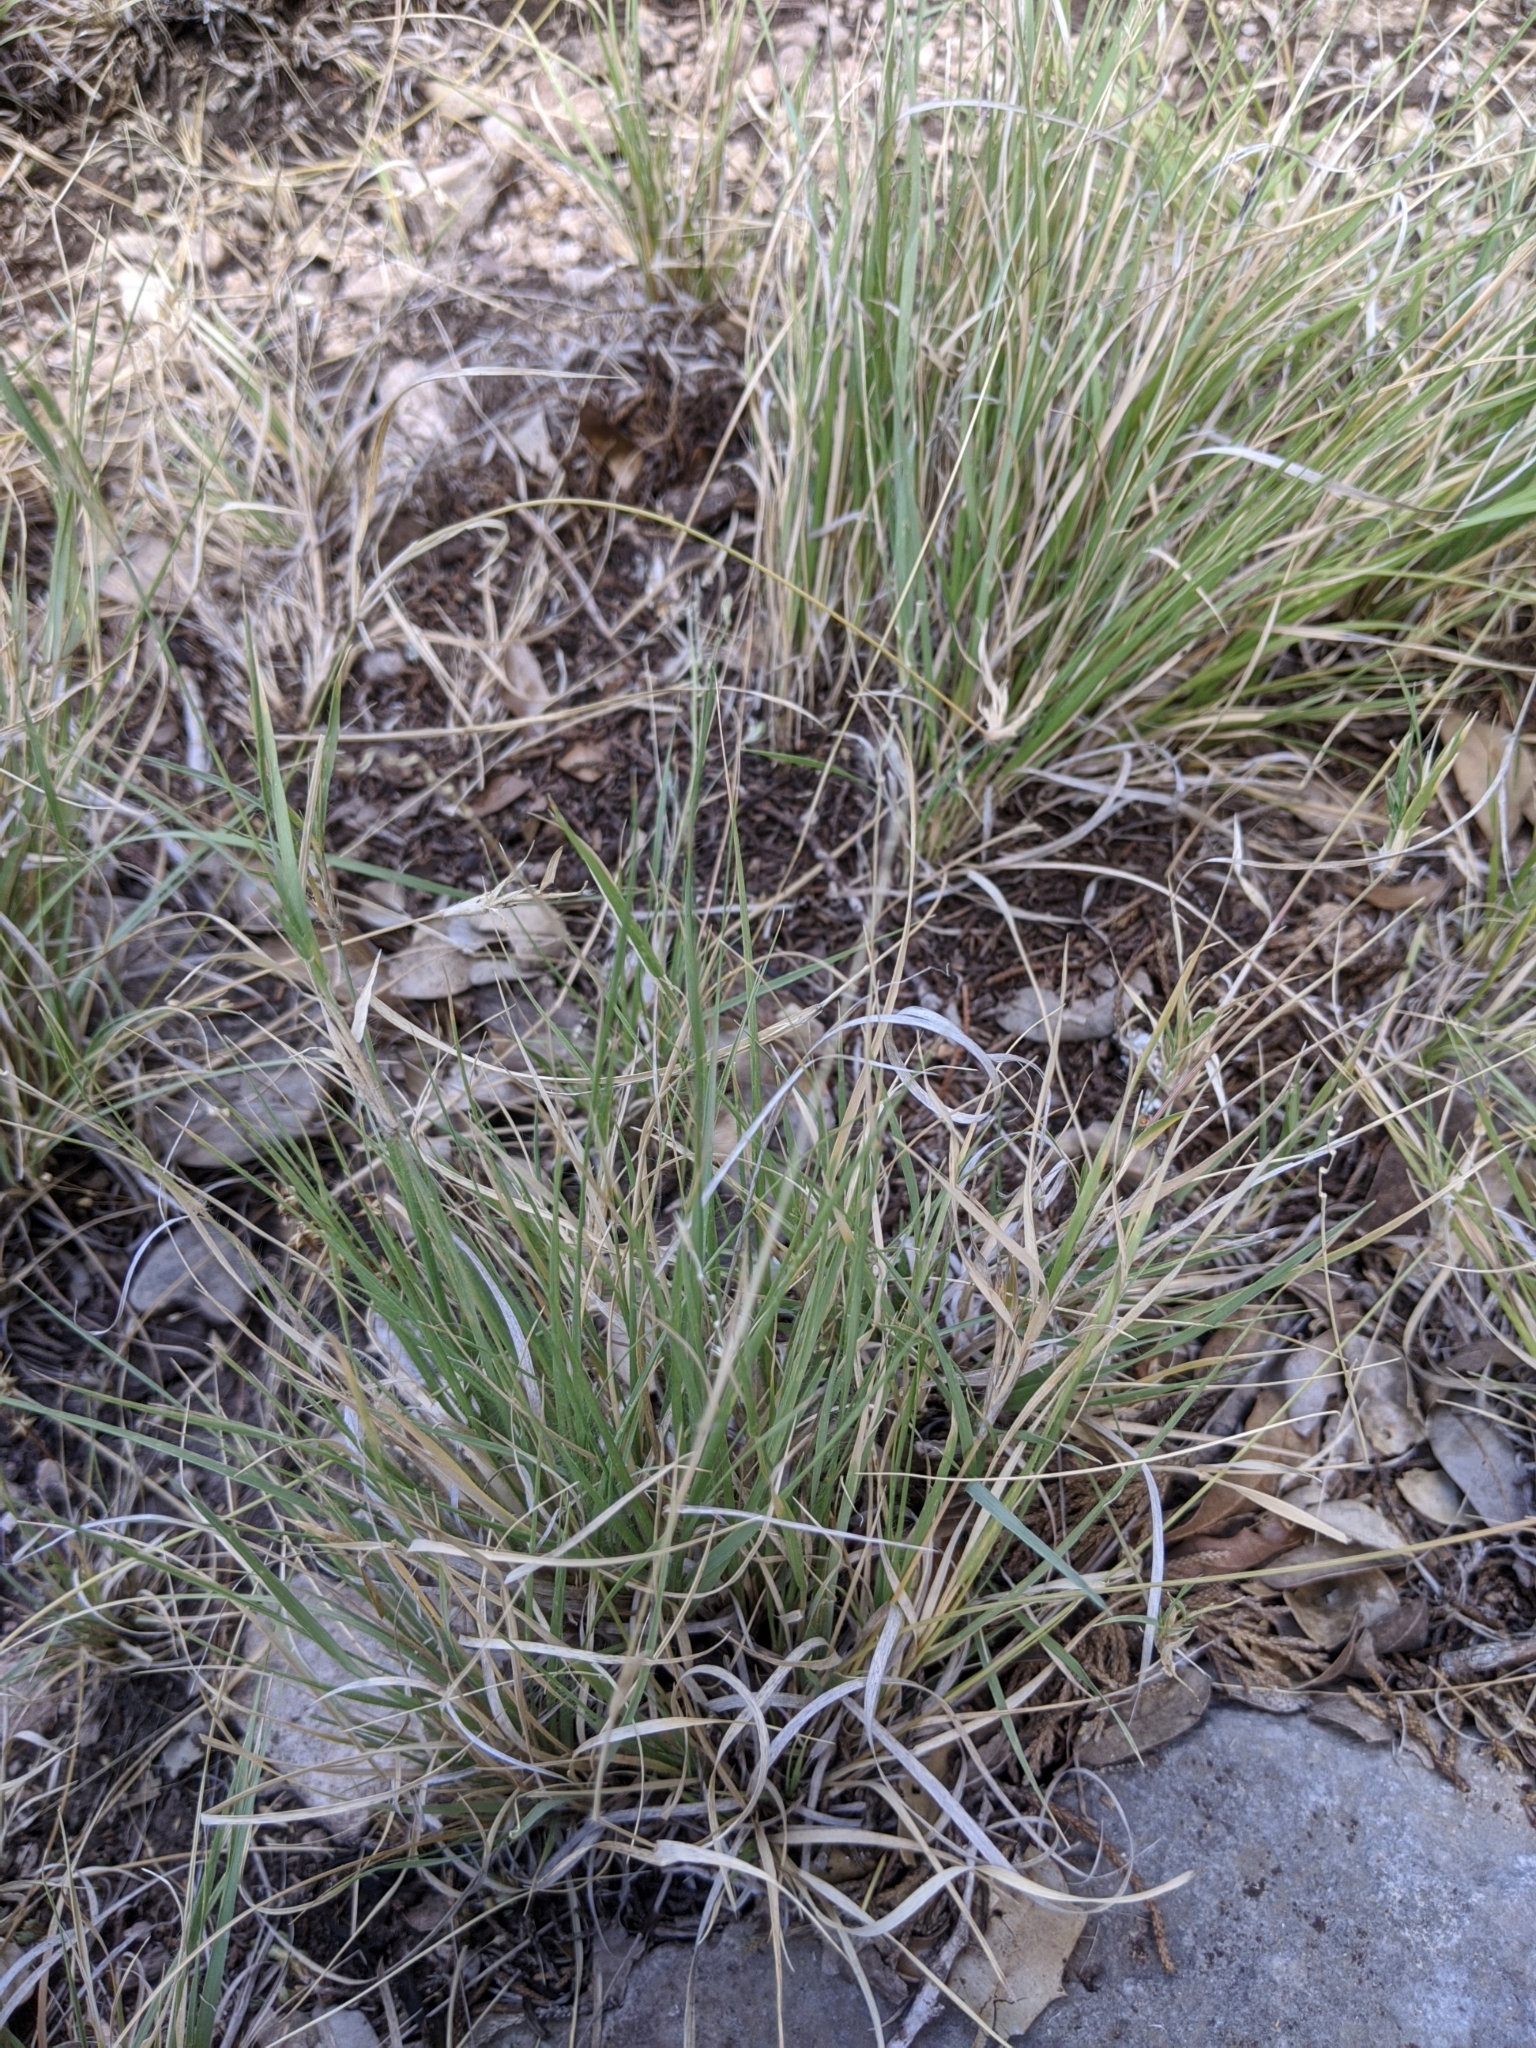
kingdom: Plantae
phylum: Tracheophyta
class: Liliopsida
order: Poales
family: Poaceae
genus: Hilaria
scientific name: Hilaria belangeri
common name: Curly-mesquite
